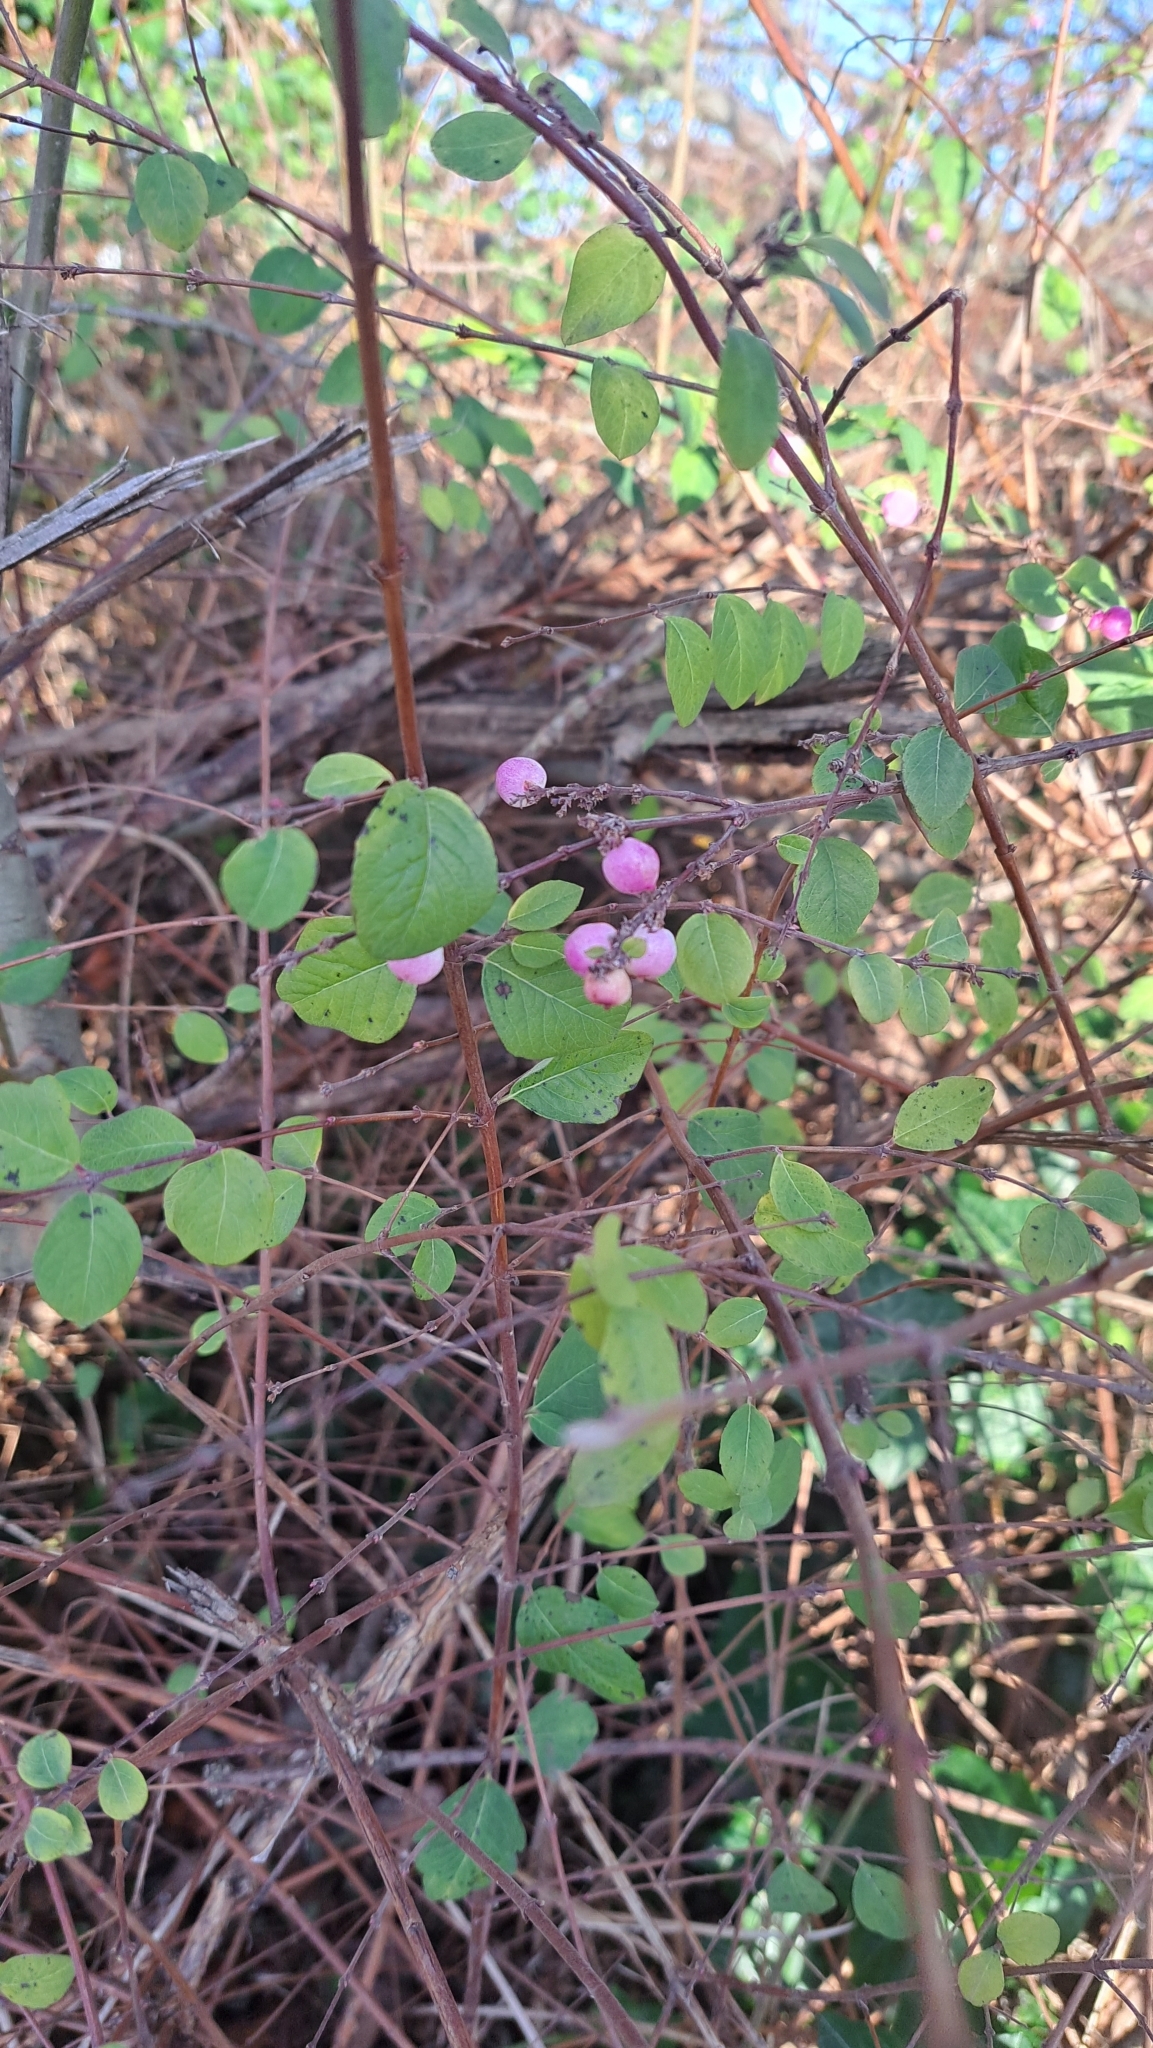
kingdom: Plantae
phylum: Tracheophyta
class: Magnoliopsida
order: Dipsacales
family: Caprifoliaceae
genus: Symphoricarpos
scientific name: Symphoricarpos chenaultii
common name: Hybrid coralberry
